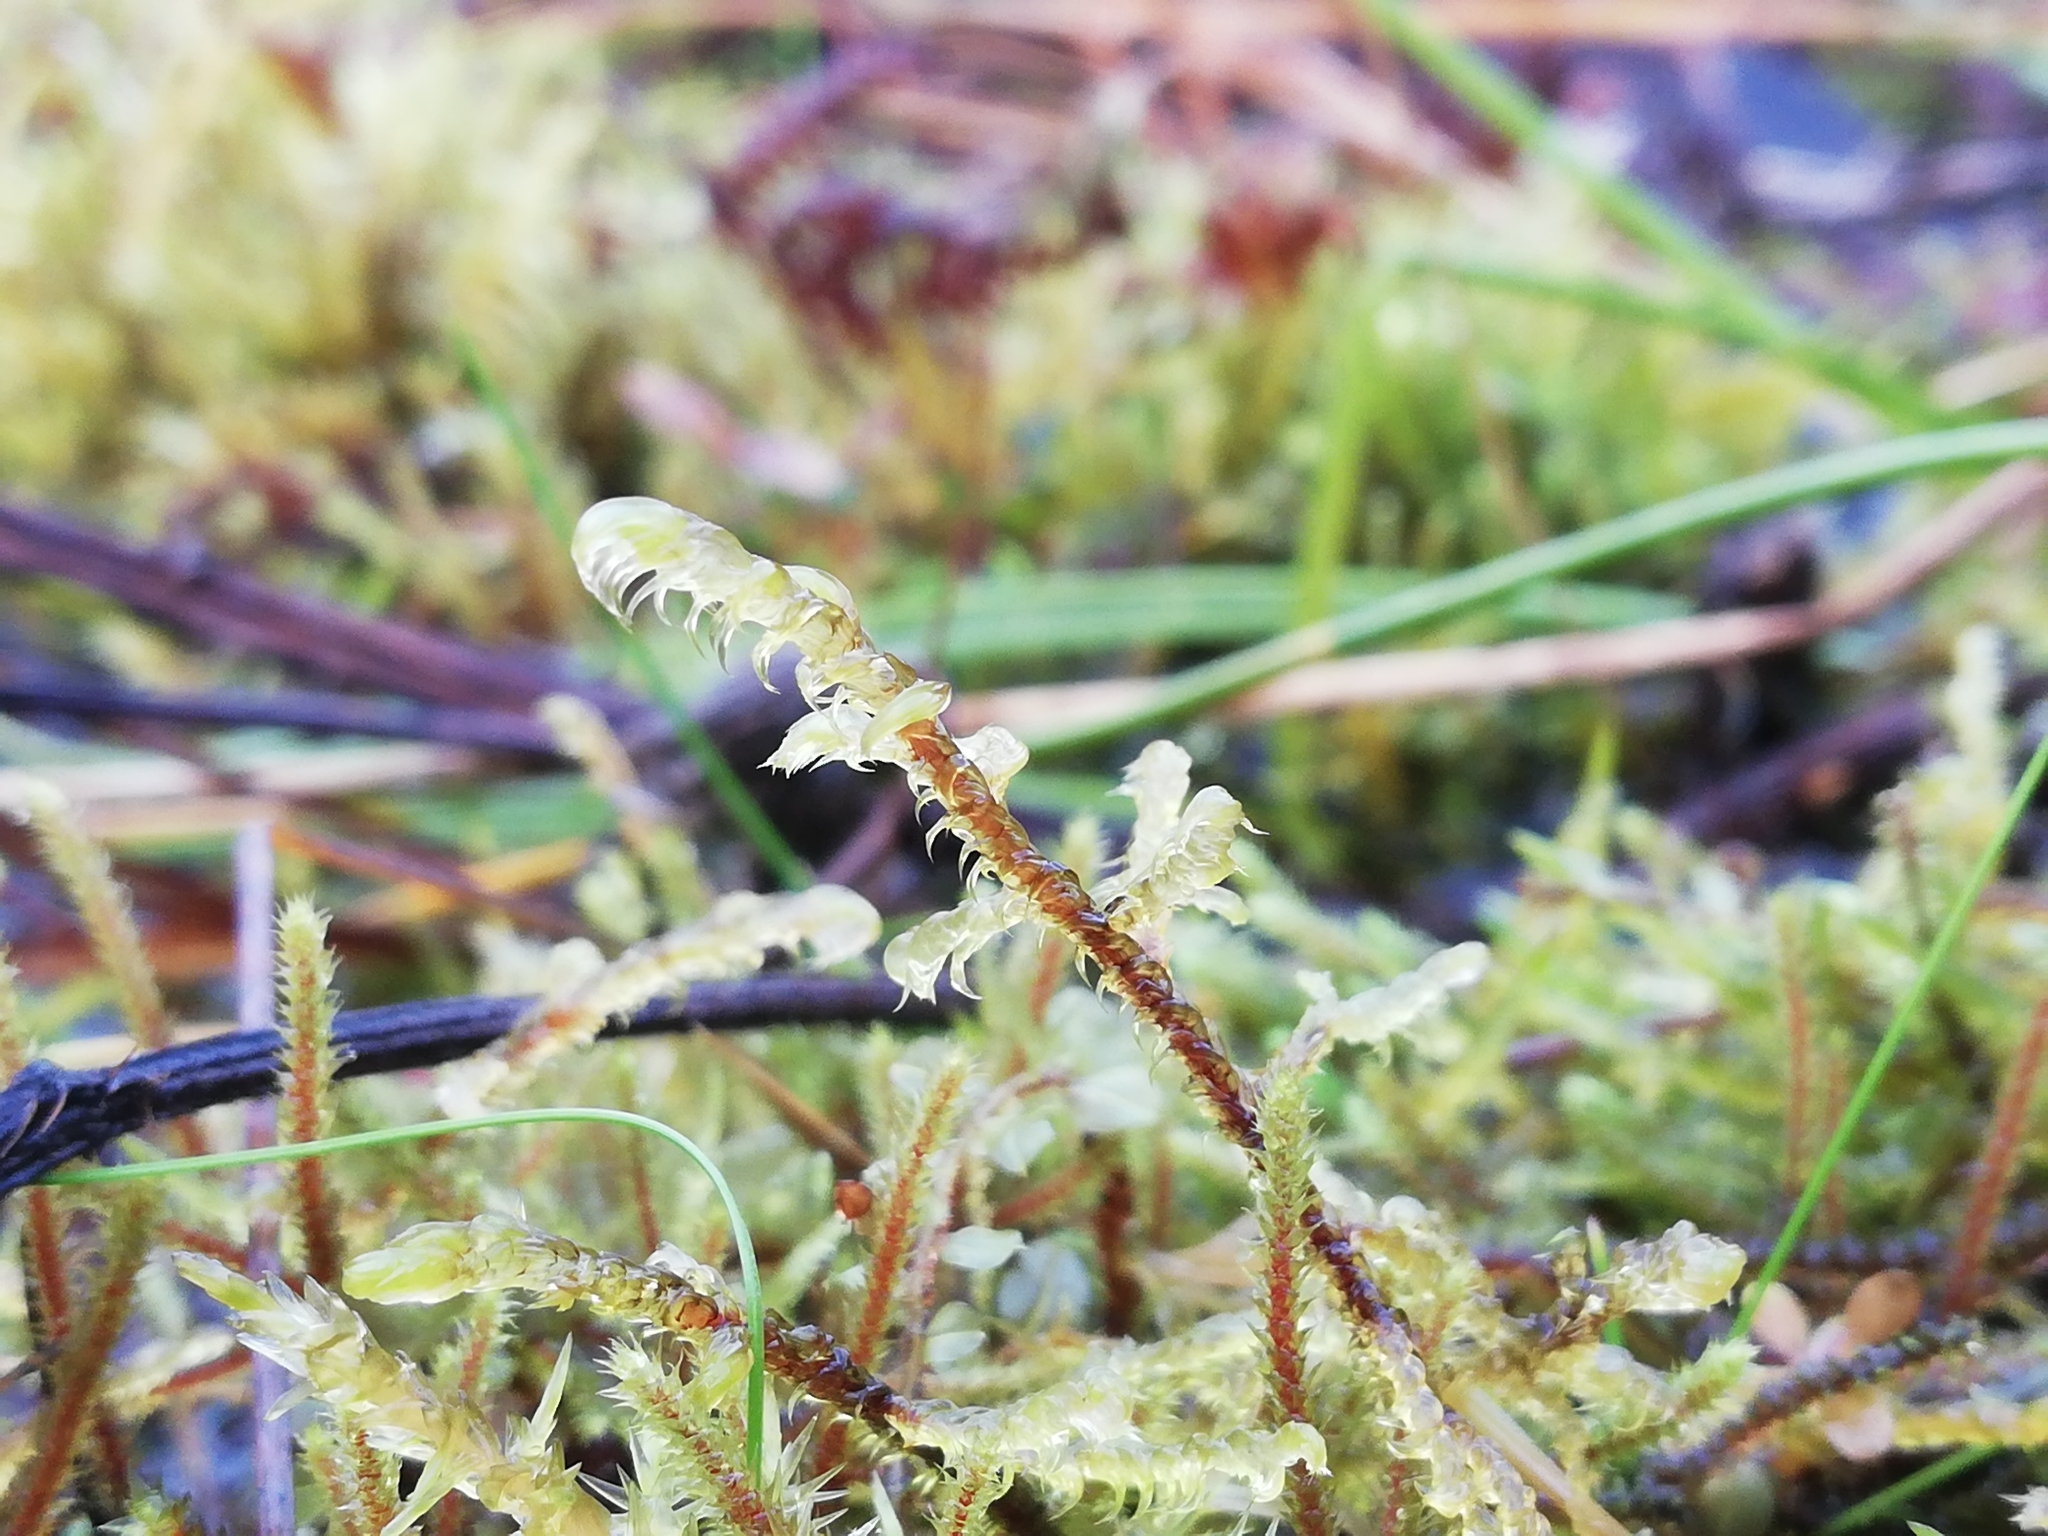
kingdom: Plantae
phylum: Bryophyta
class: Bryopsida
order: Hypnales
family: Scorpidiaceae
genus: Hamatocaulis
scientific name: Hamatocaulis vernicosus
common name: Varnished hook moss
